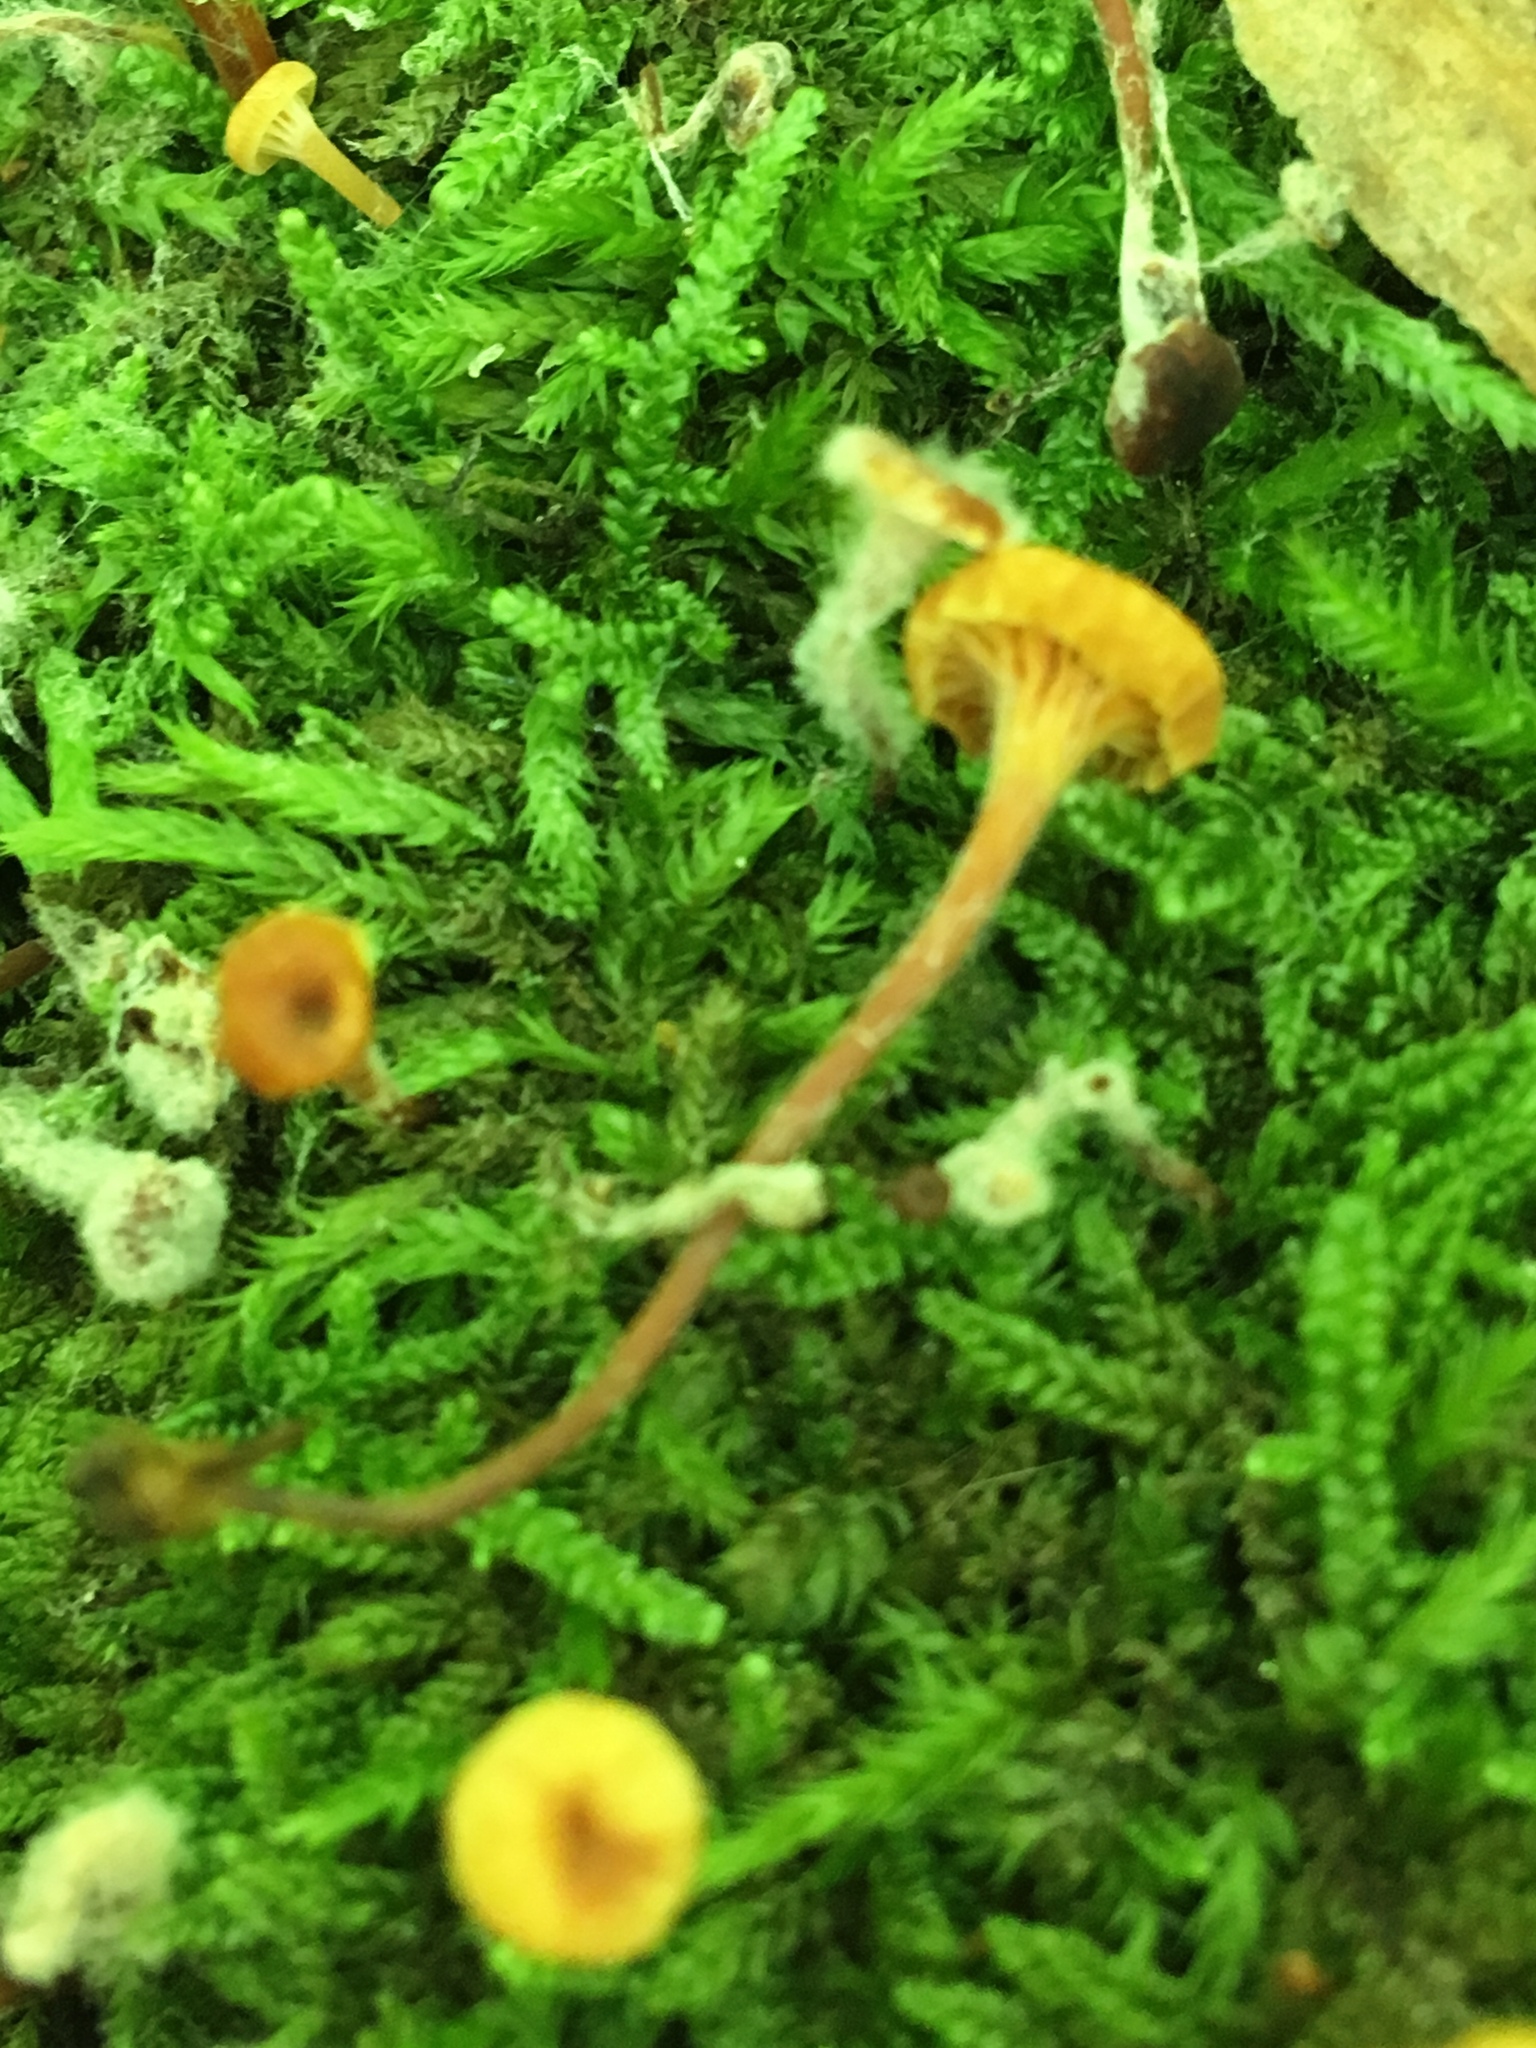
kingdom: Fungi
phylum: Basidiomycota
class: Agaricomycetes
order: Agaricales
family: Mycenaceae
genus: Xeromphalina
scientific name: Xeromphalina kauffmanii
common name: Cross-veined troop mushroom
